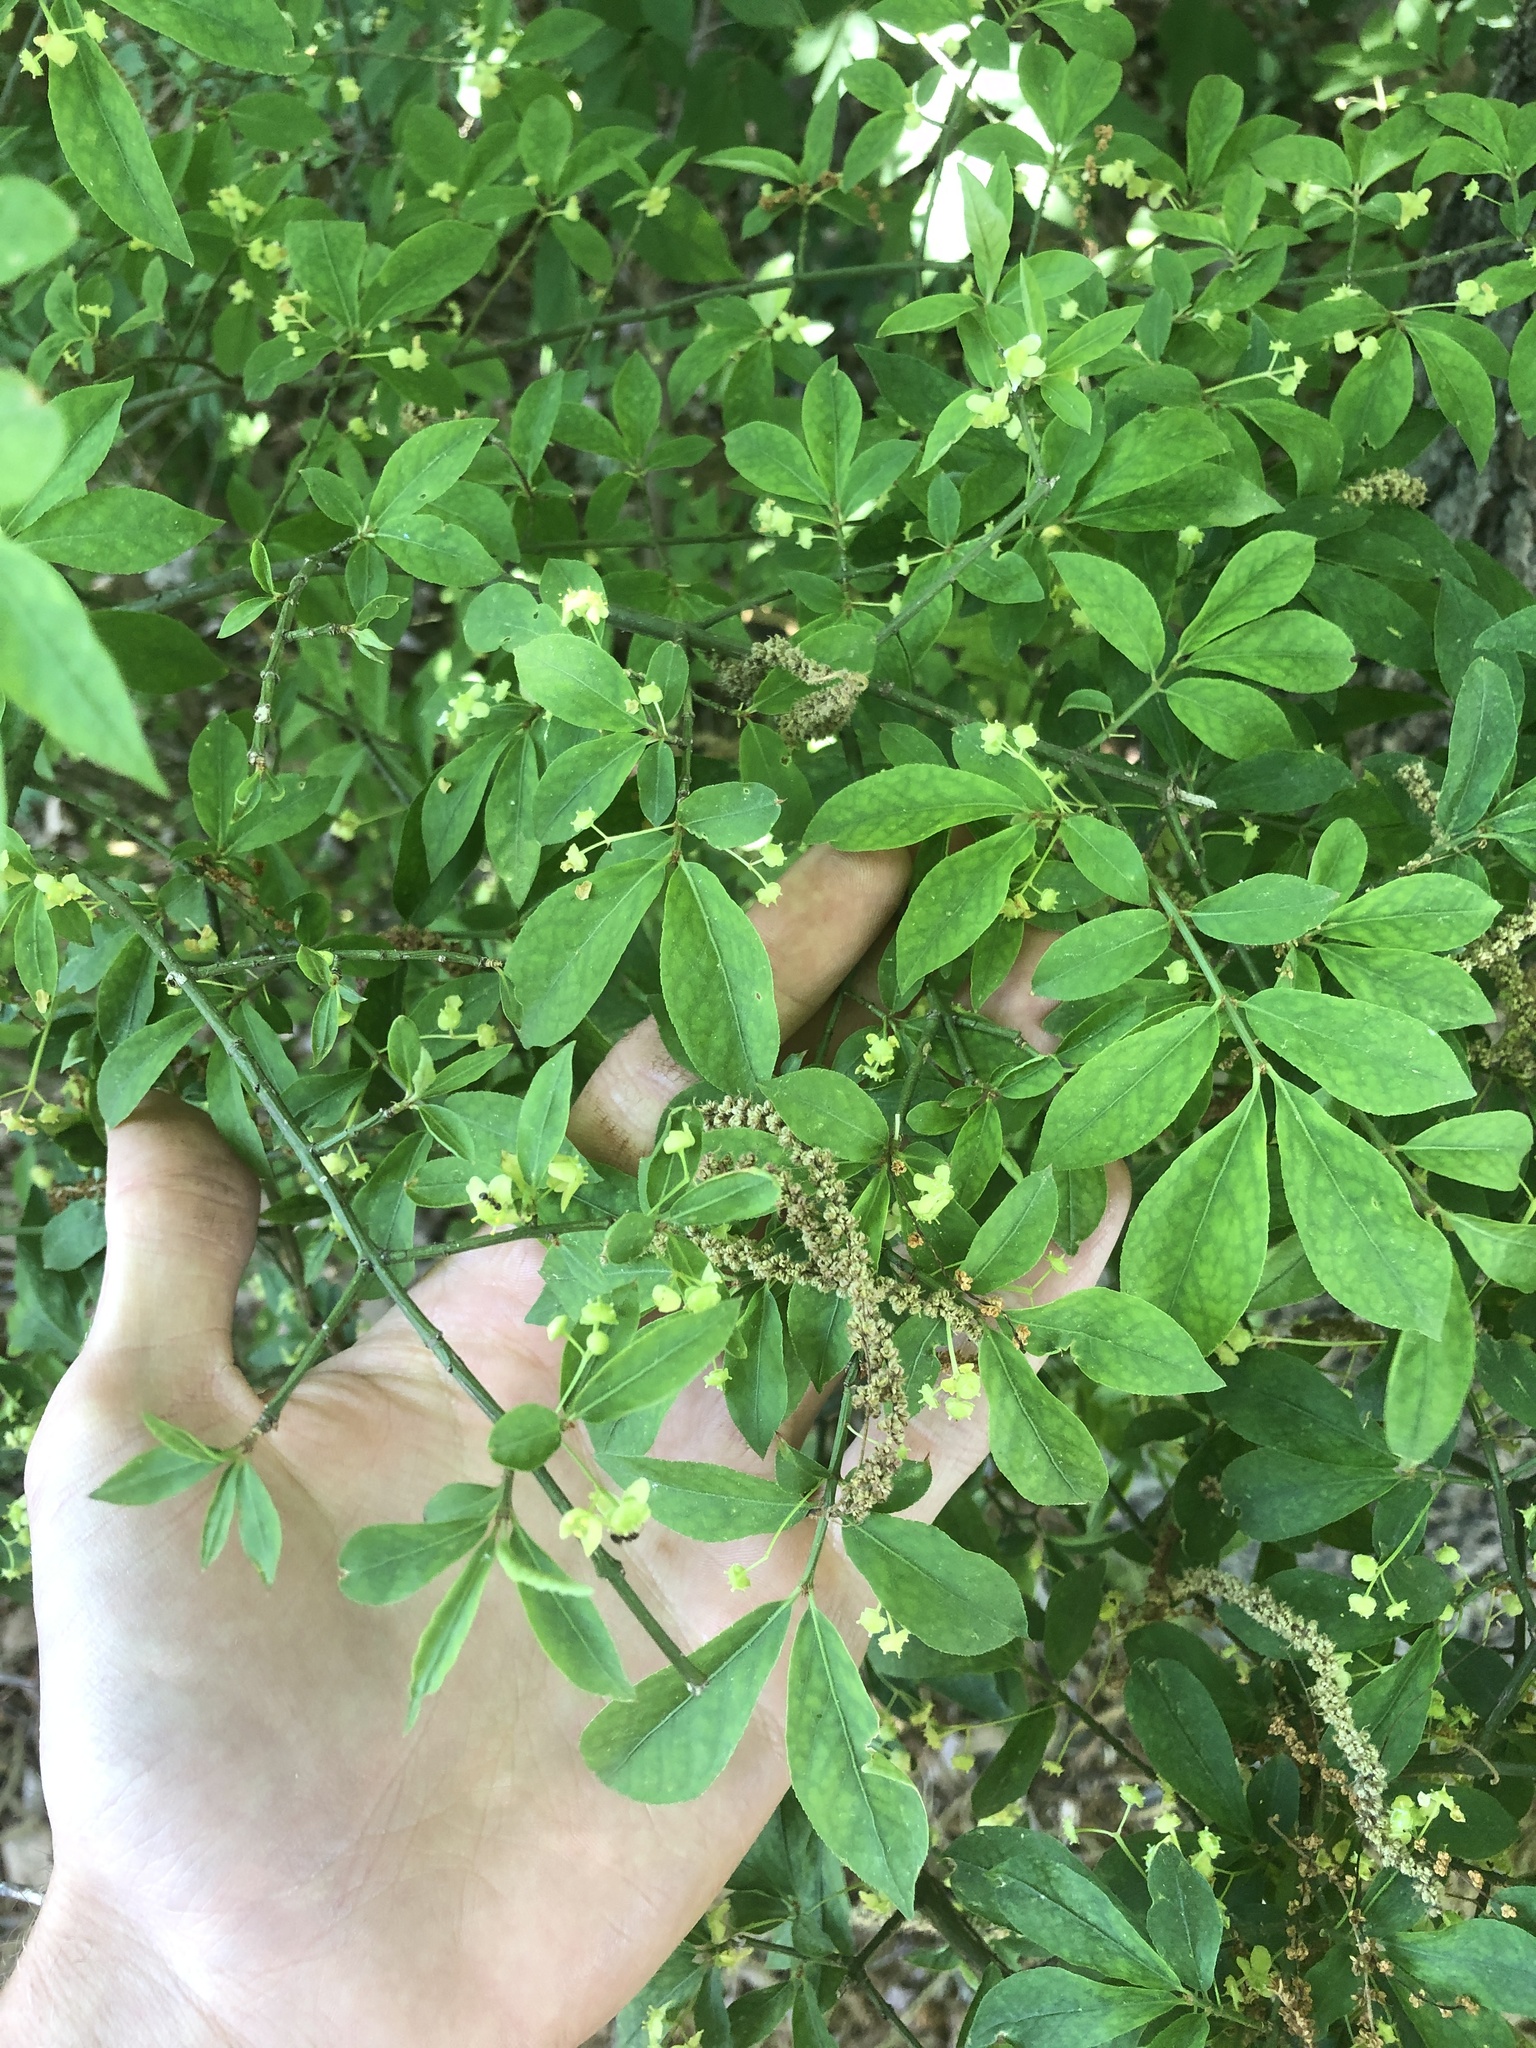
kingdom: Plantae
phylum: Tracheophyta
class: Magnoliopsida
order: Celastrales
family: Celastraceae
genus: Euonymus
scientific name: Euonymus alatus
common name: Winged euonymus
